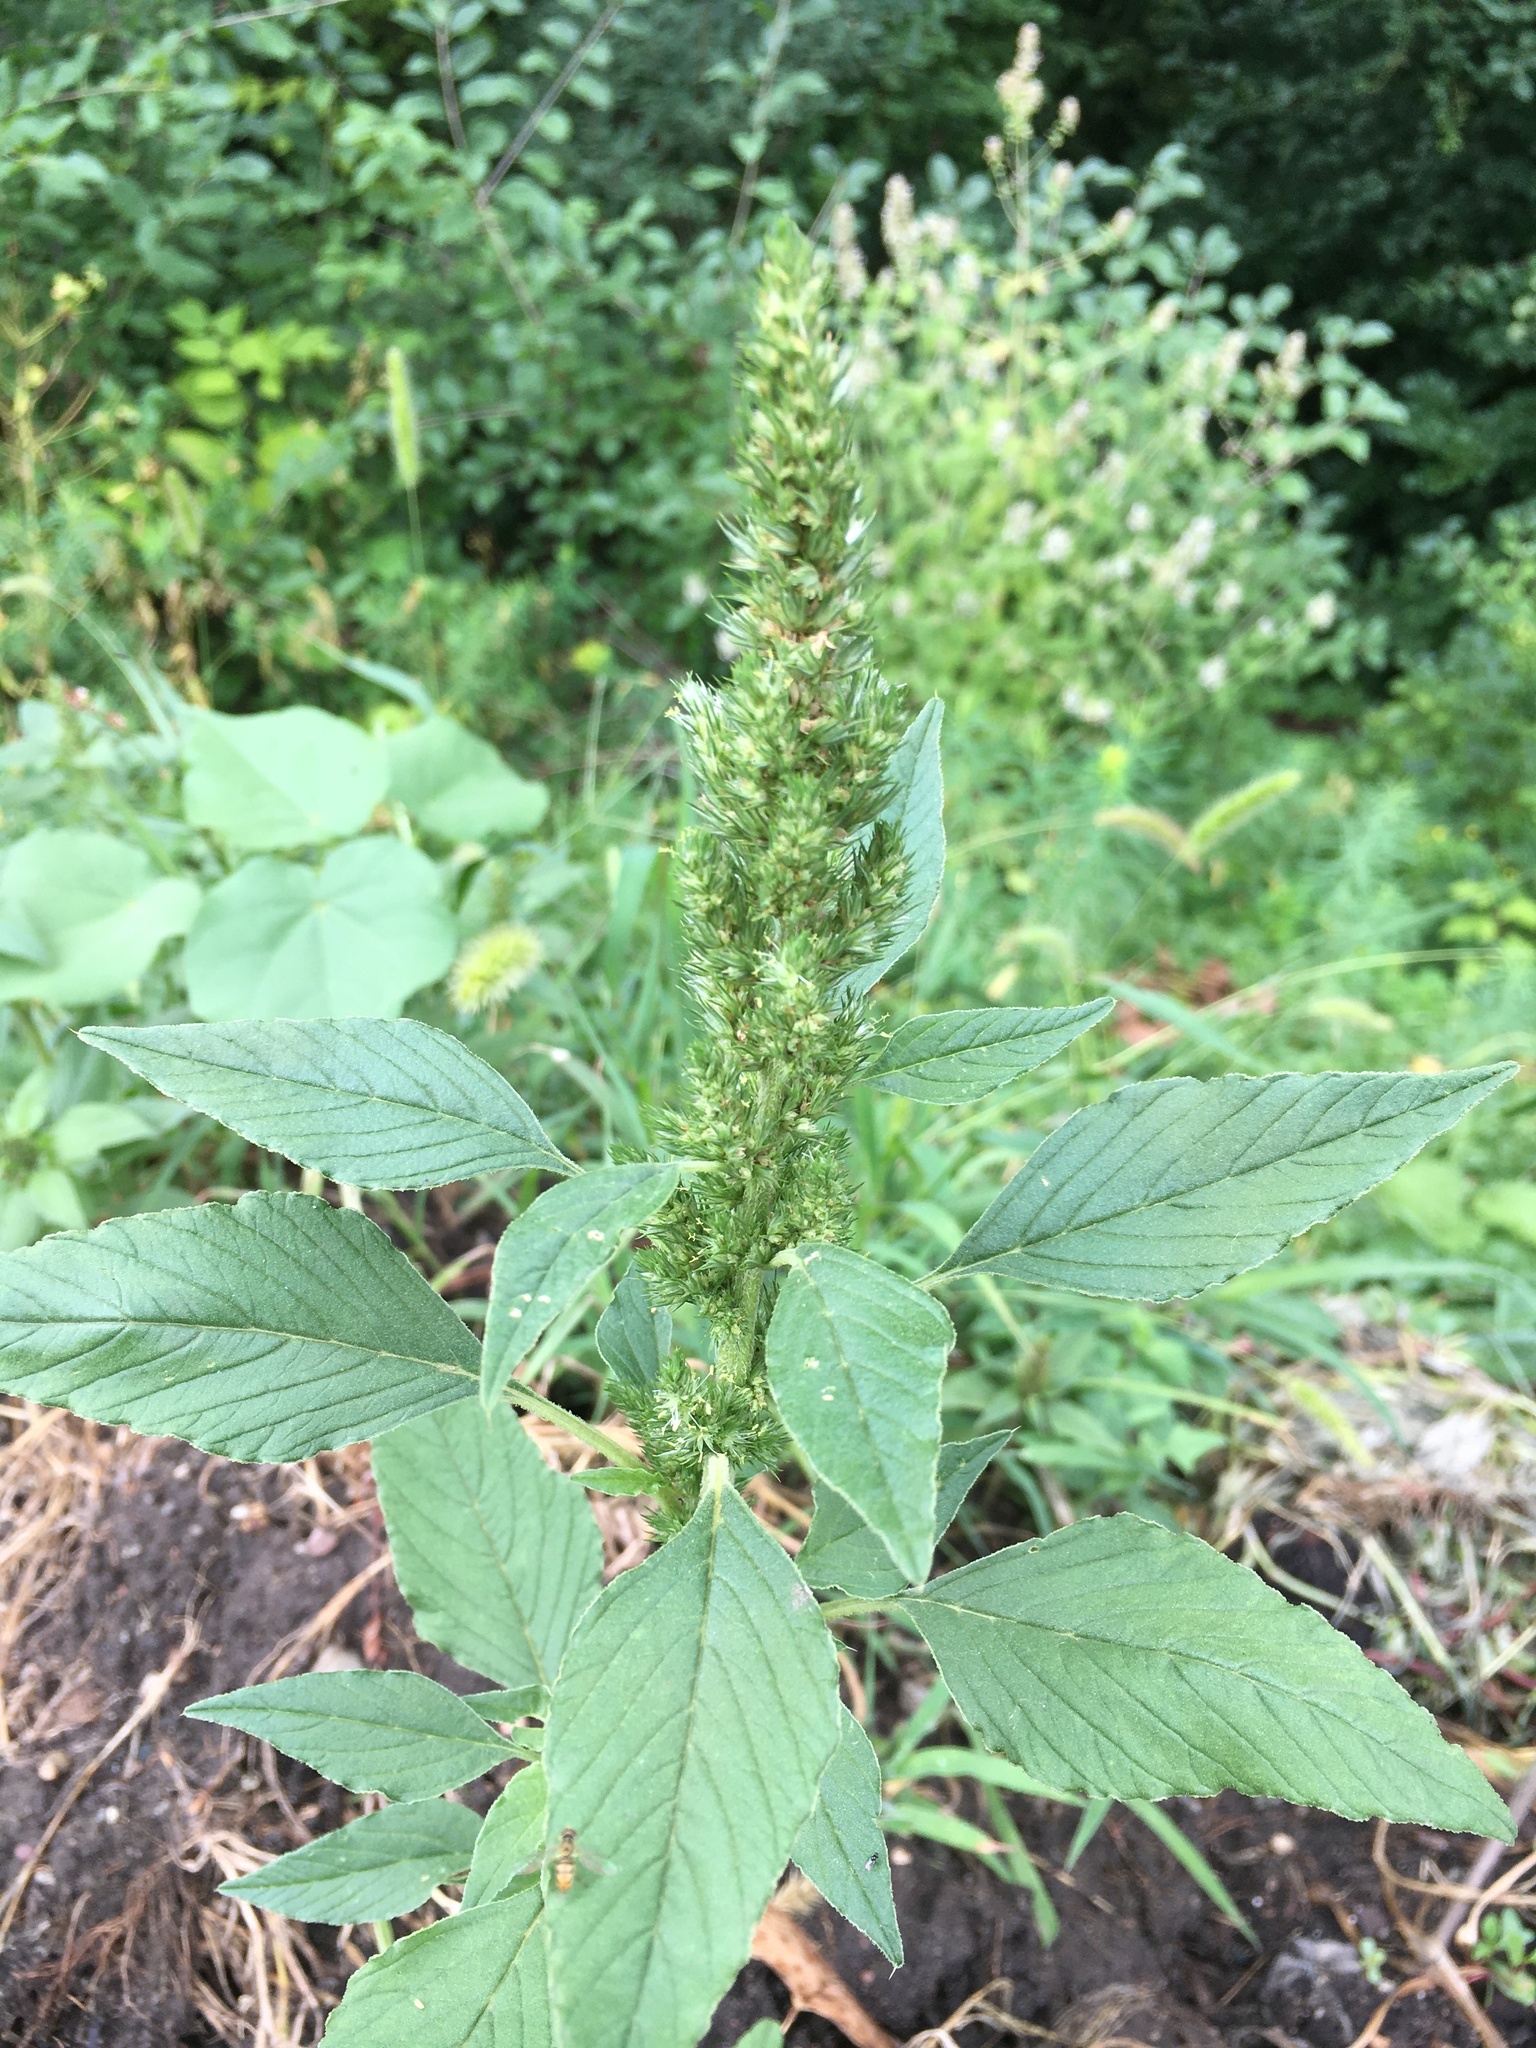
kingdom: Plantae
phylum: Tracheophyta
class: Magnoliopsida
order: Caryophyllales
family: Amaranthaceae
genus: Amaranthus
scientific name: Amaranthus retroflexus
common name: Redroot amaranth
